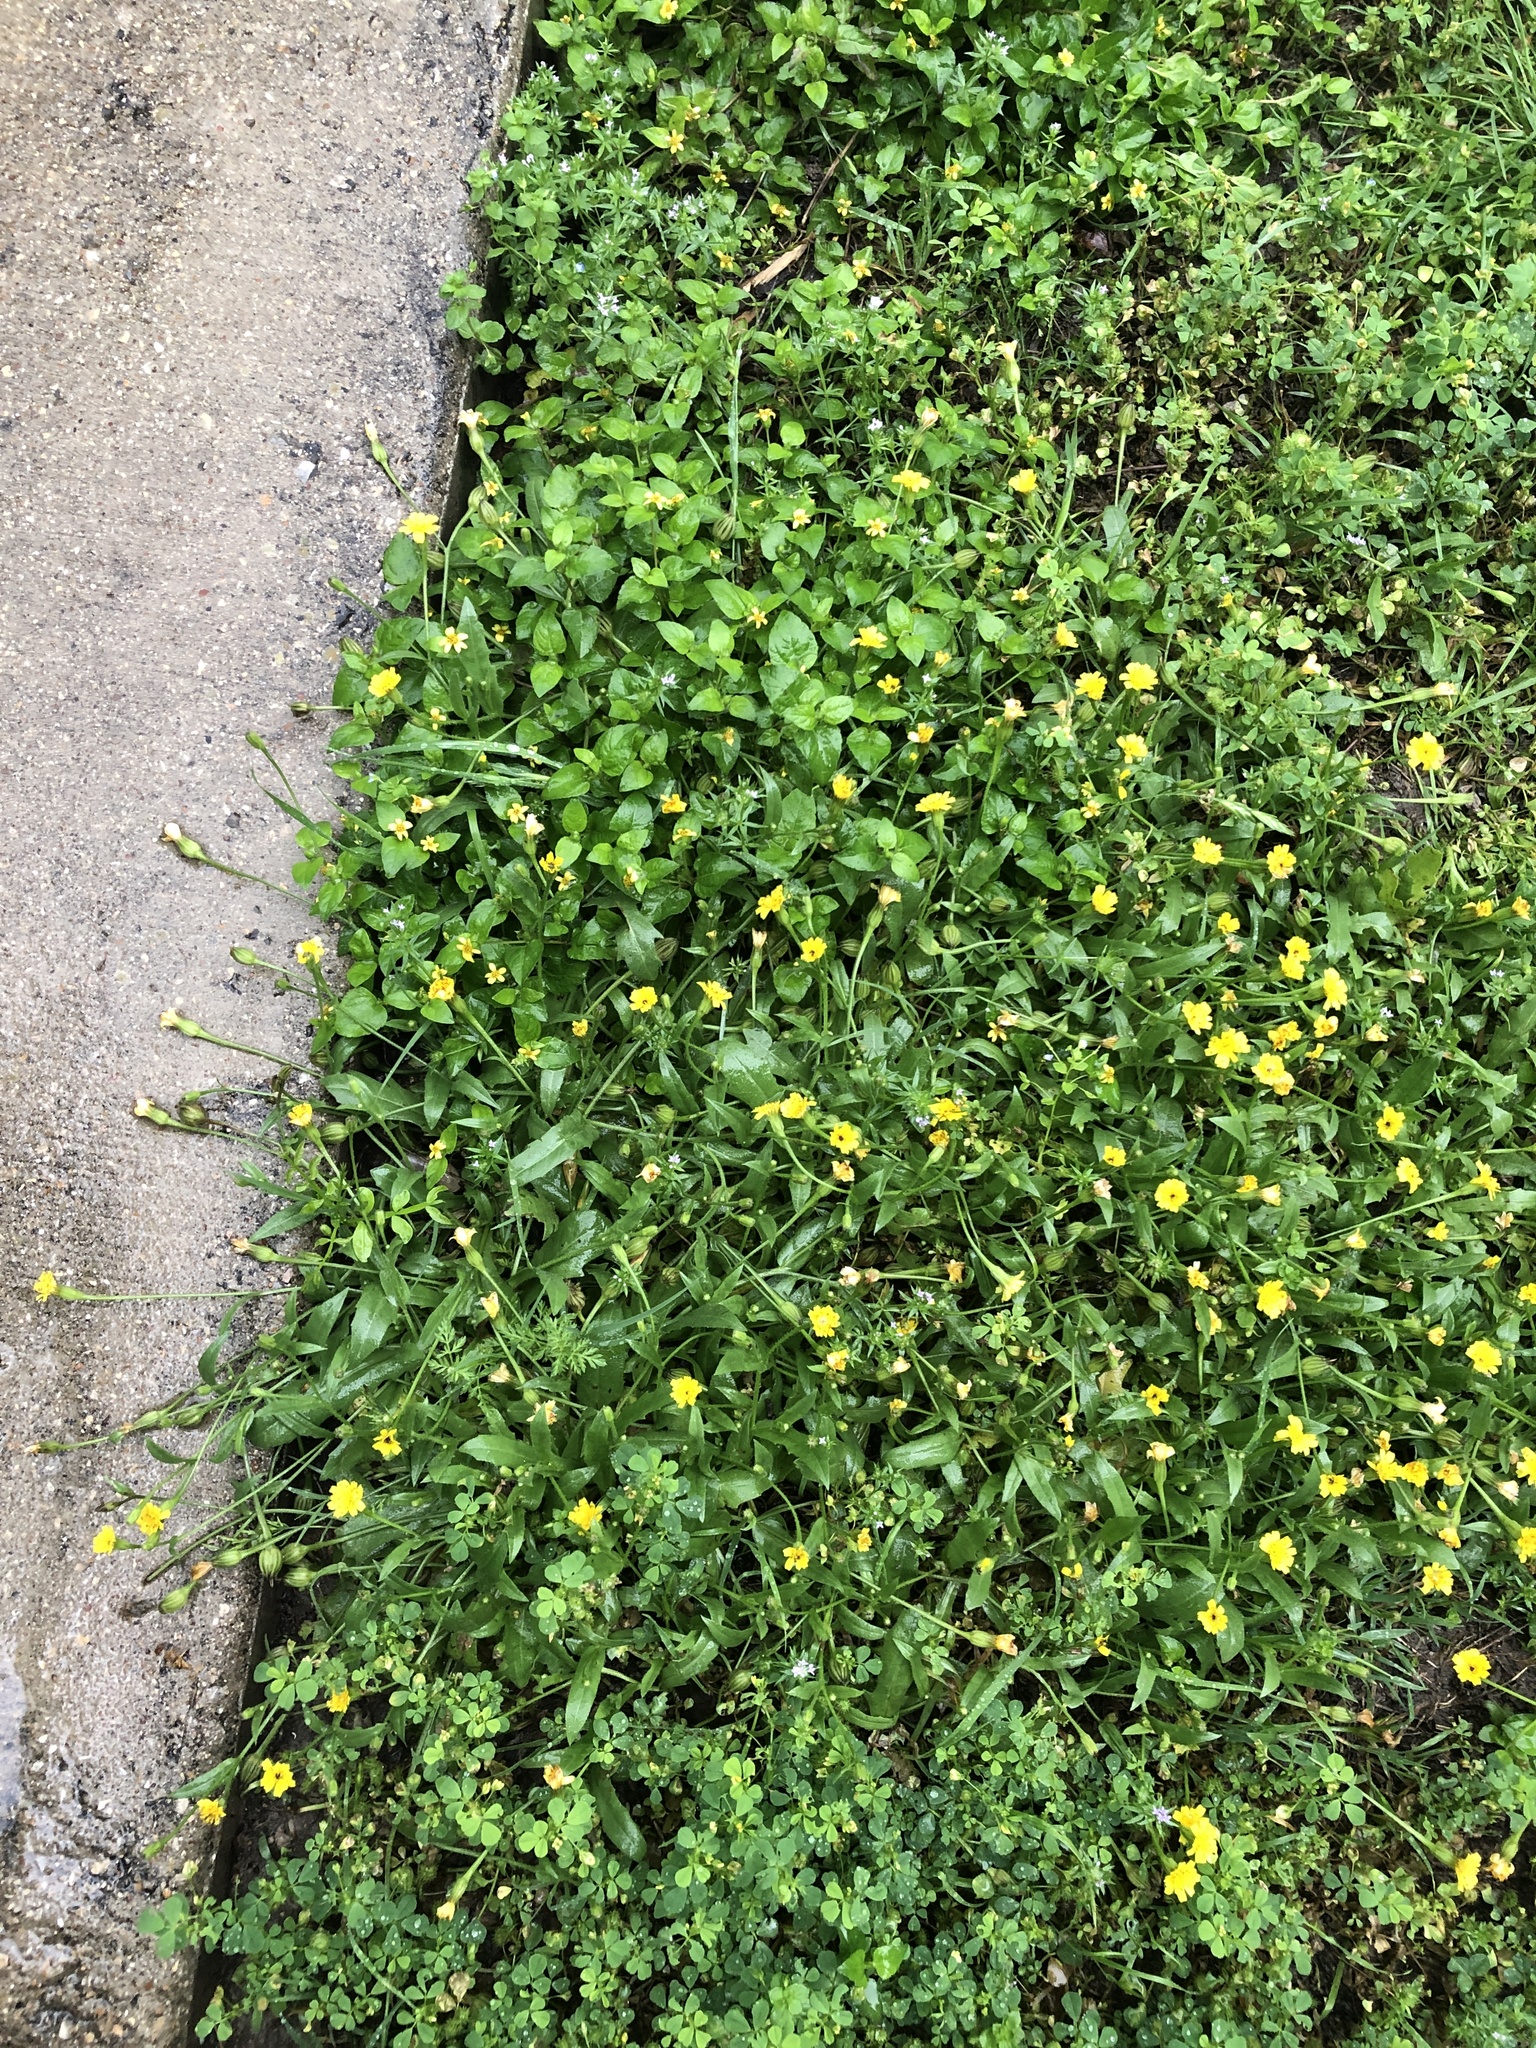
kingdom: Plantae
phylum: Tracheophyta
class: Magnoliopsida
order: Asterales
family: Asteraceae
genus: Hedypnois
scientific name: Hedypnois rhagadioloides
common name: Cretan weed
